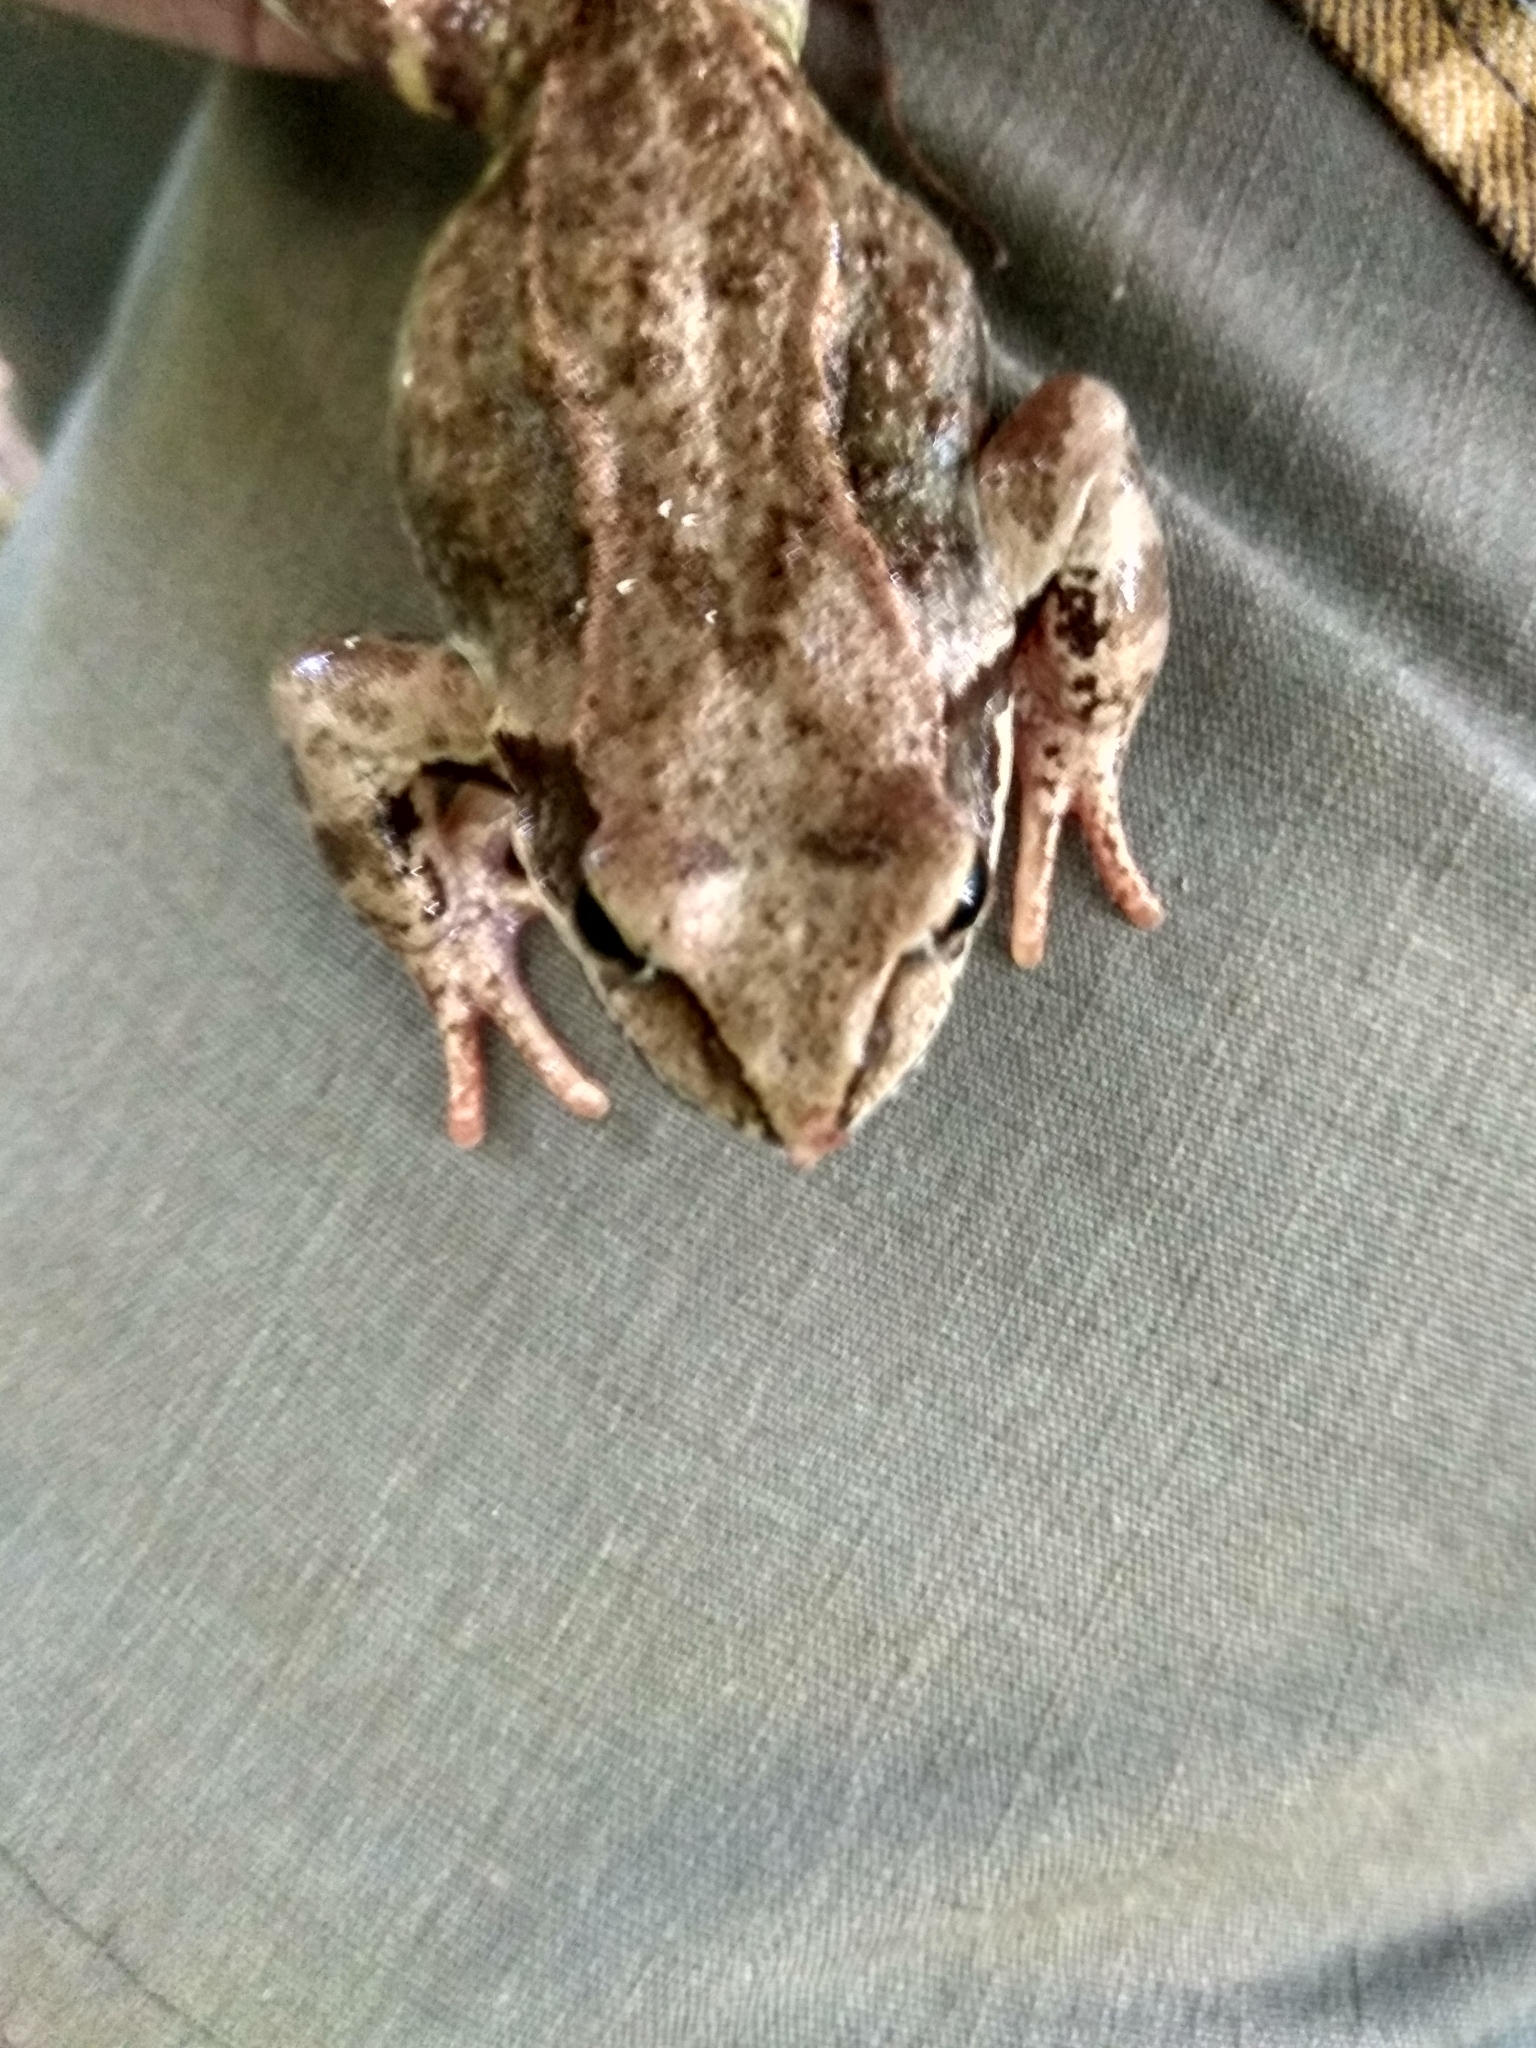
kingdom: Animalia
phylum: Chordata
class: Amphibia
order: Anura
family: Ranidae
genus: Rana
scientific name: Rana temporaria
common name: Common frog
